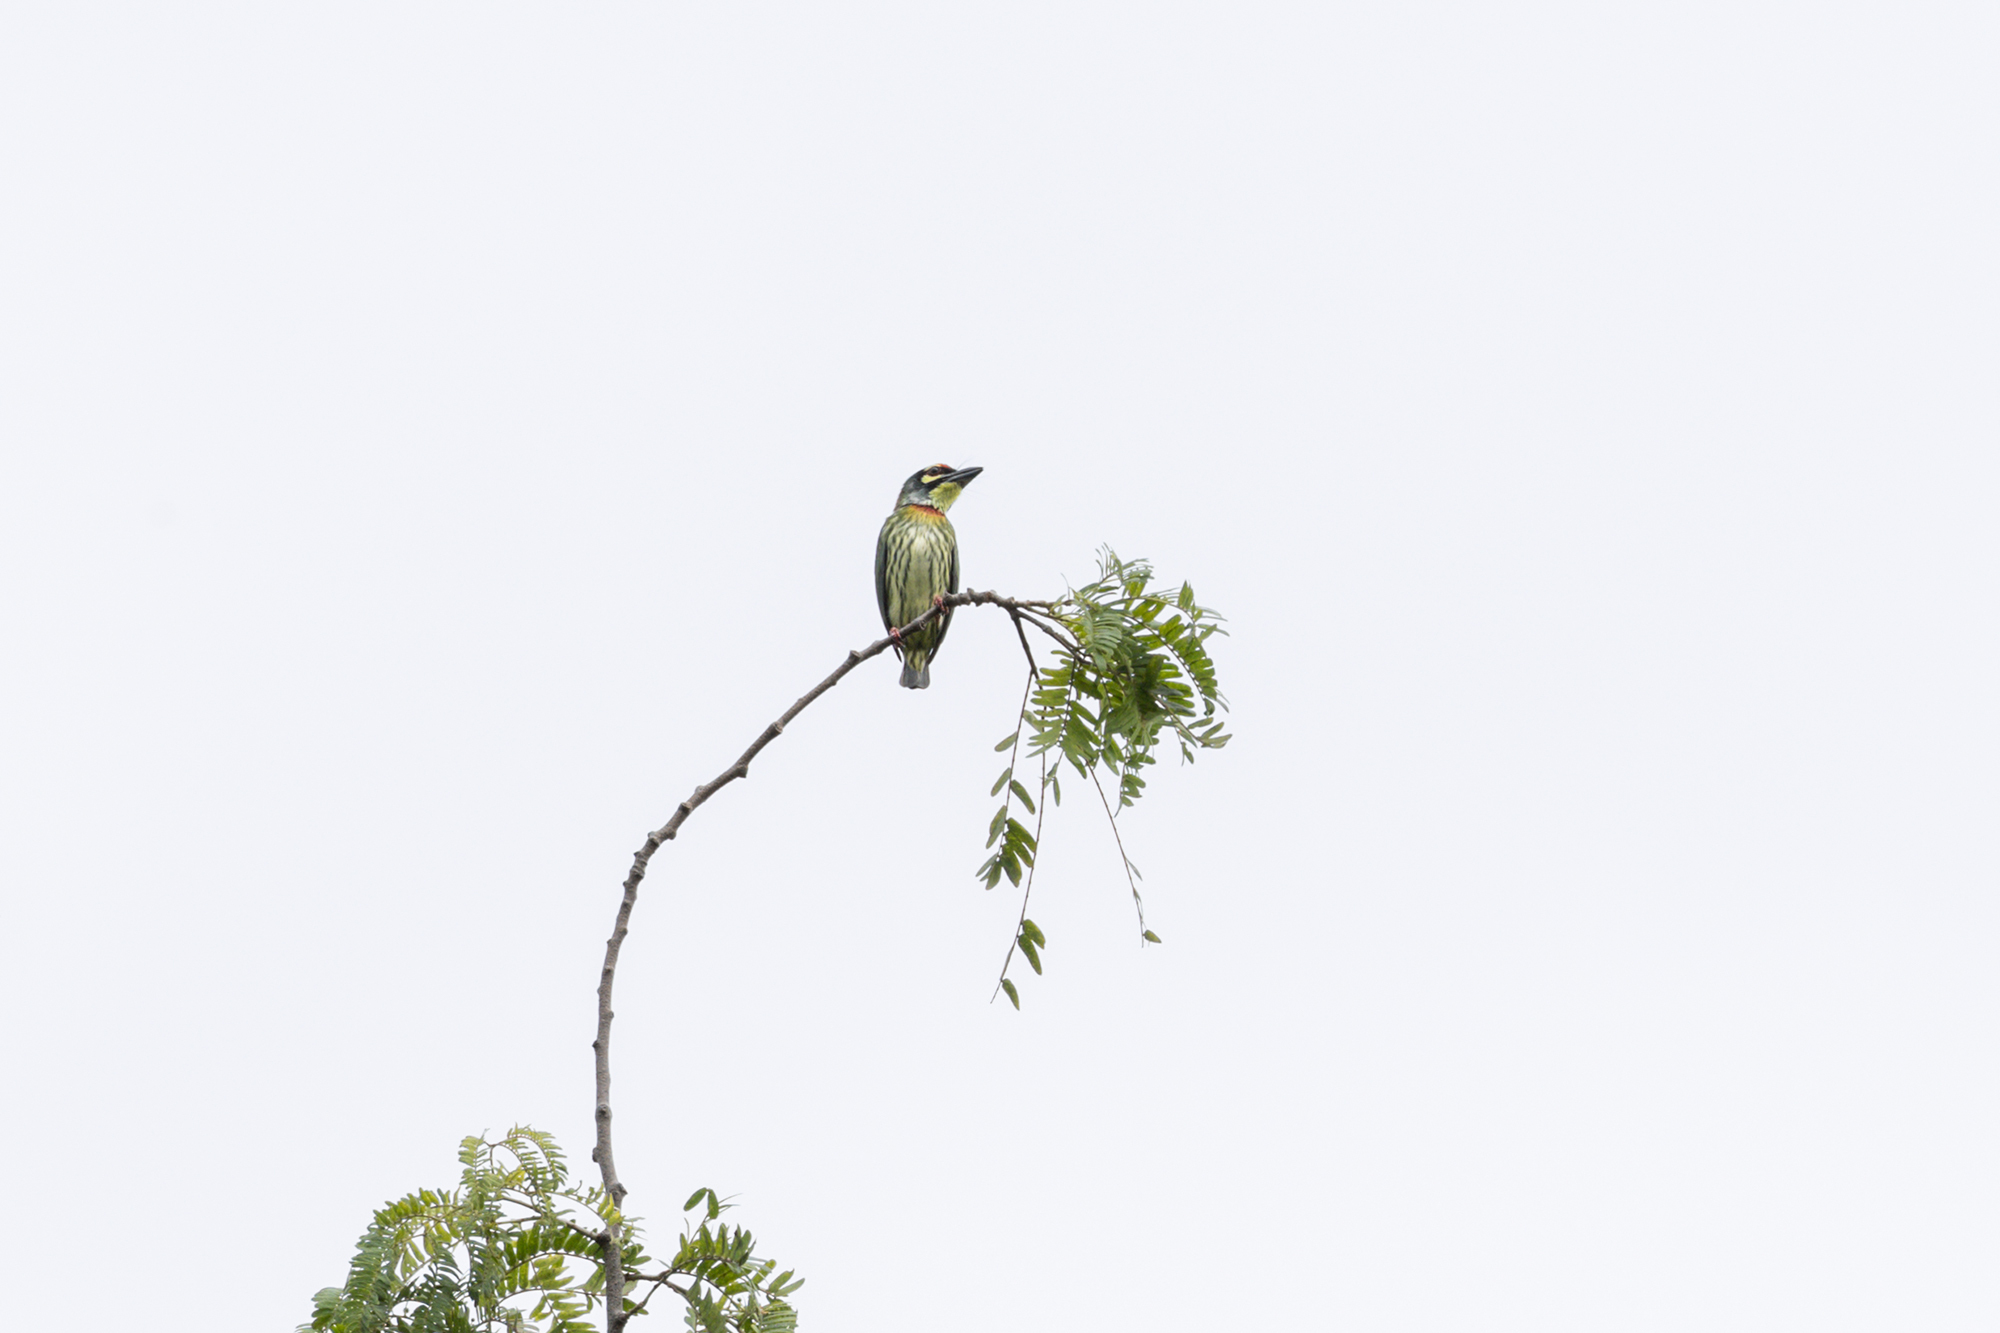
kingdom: Animalia
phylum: Chordata
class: Aves
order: Piciformes
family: Megalaimidae
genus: Psilopogon
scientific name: Psilopogon haemacephalus
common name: Coppersmith barbet
